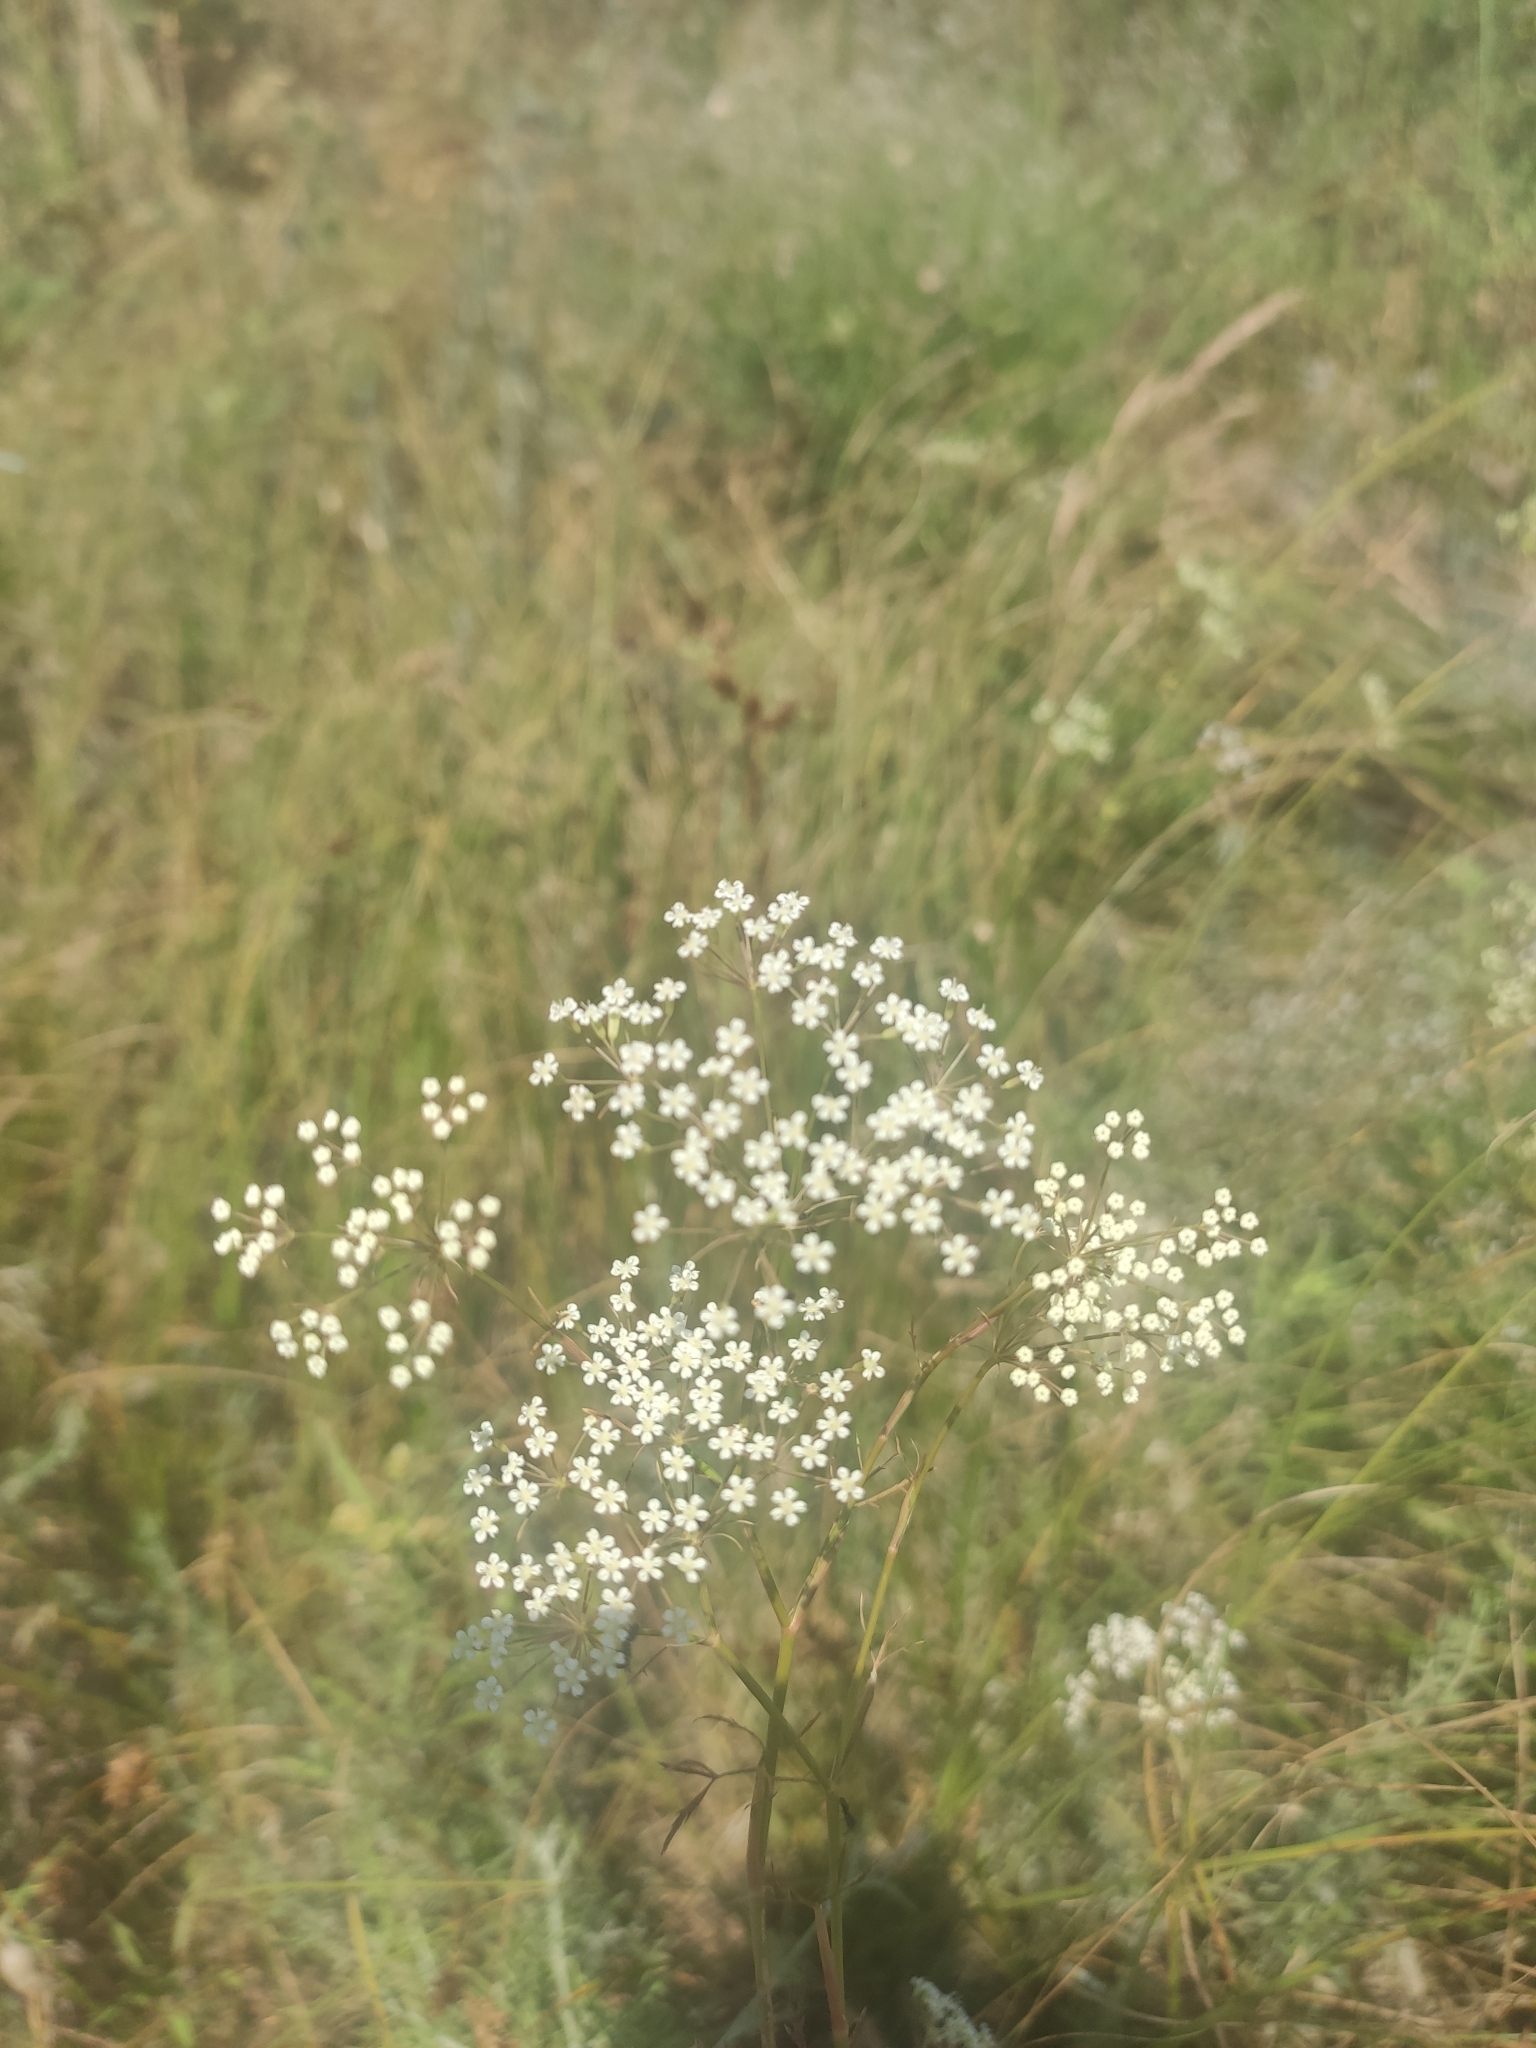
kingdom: Plantae
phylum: Tracheophyta
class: Magnoliopsida
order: Apiales
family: Apiaceae
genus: Falcaria
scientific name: Falcaria vulgaris
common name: Longleaf
